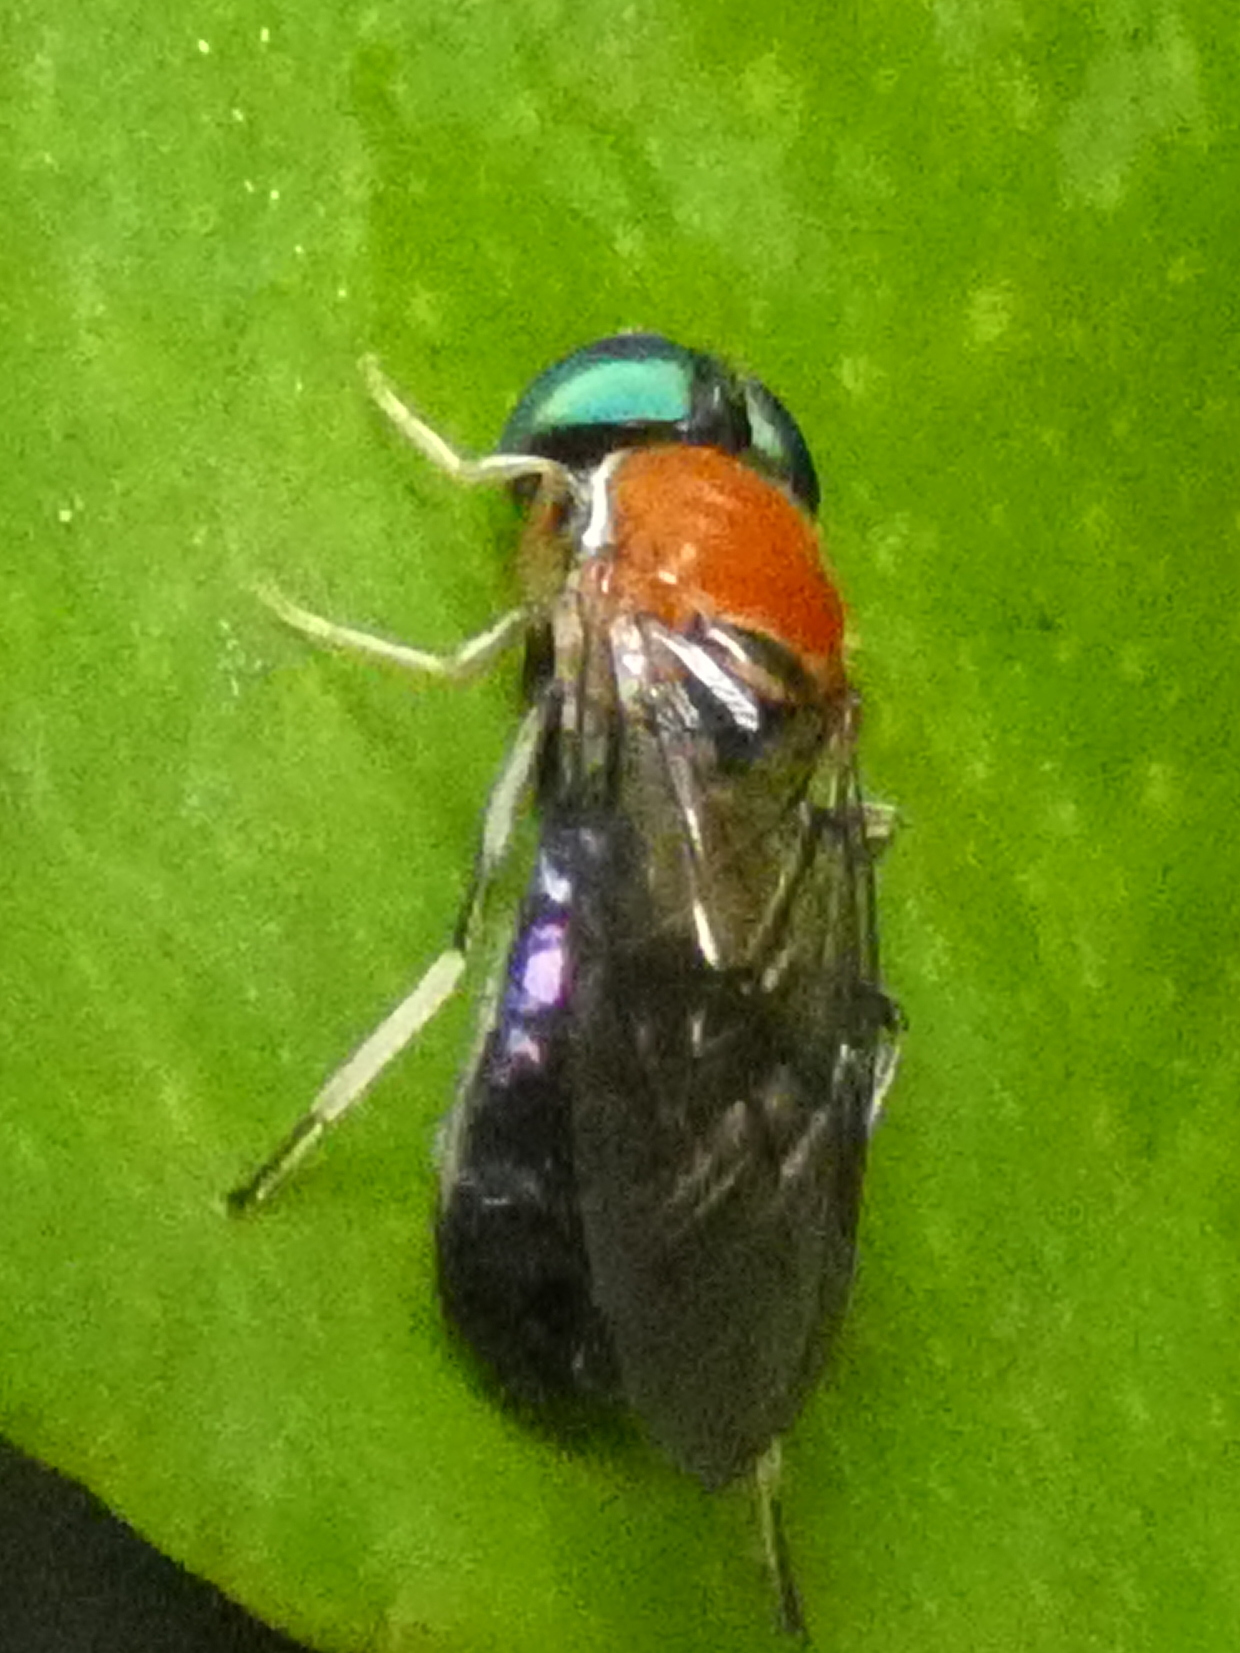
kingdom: Animalia
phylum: Arthropoda
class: Insecta
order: Diptera
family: Stratiomyidae
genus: Sargus
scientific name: Sargus thoracicus
